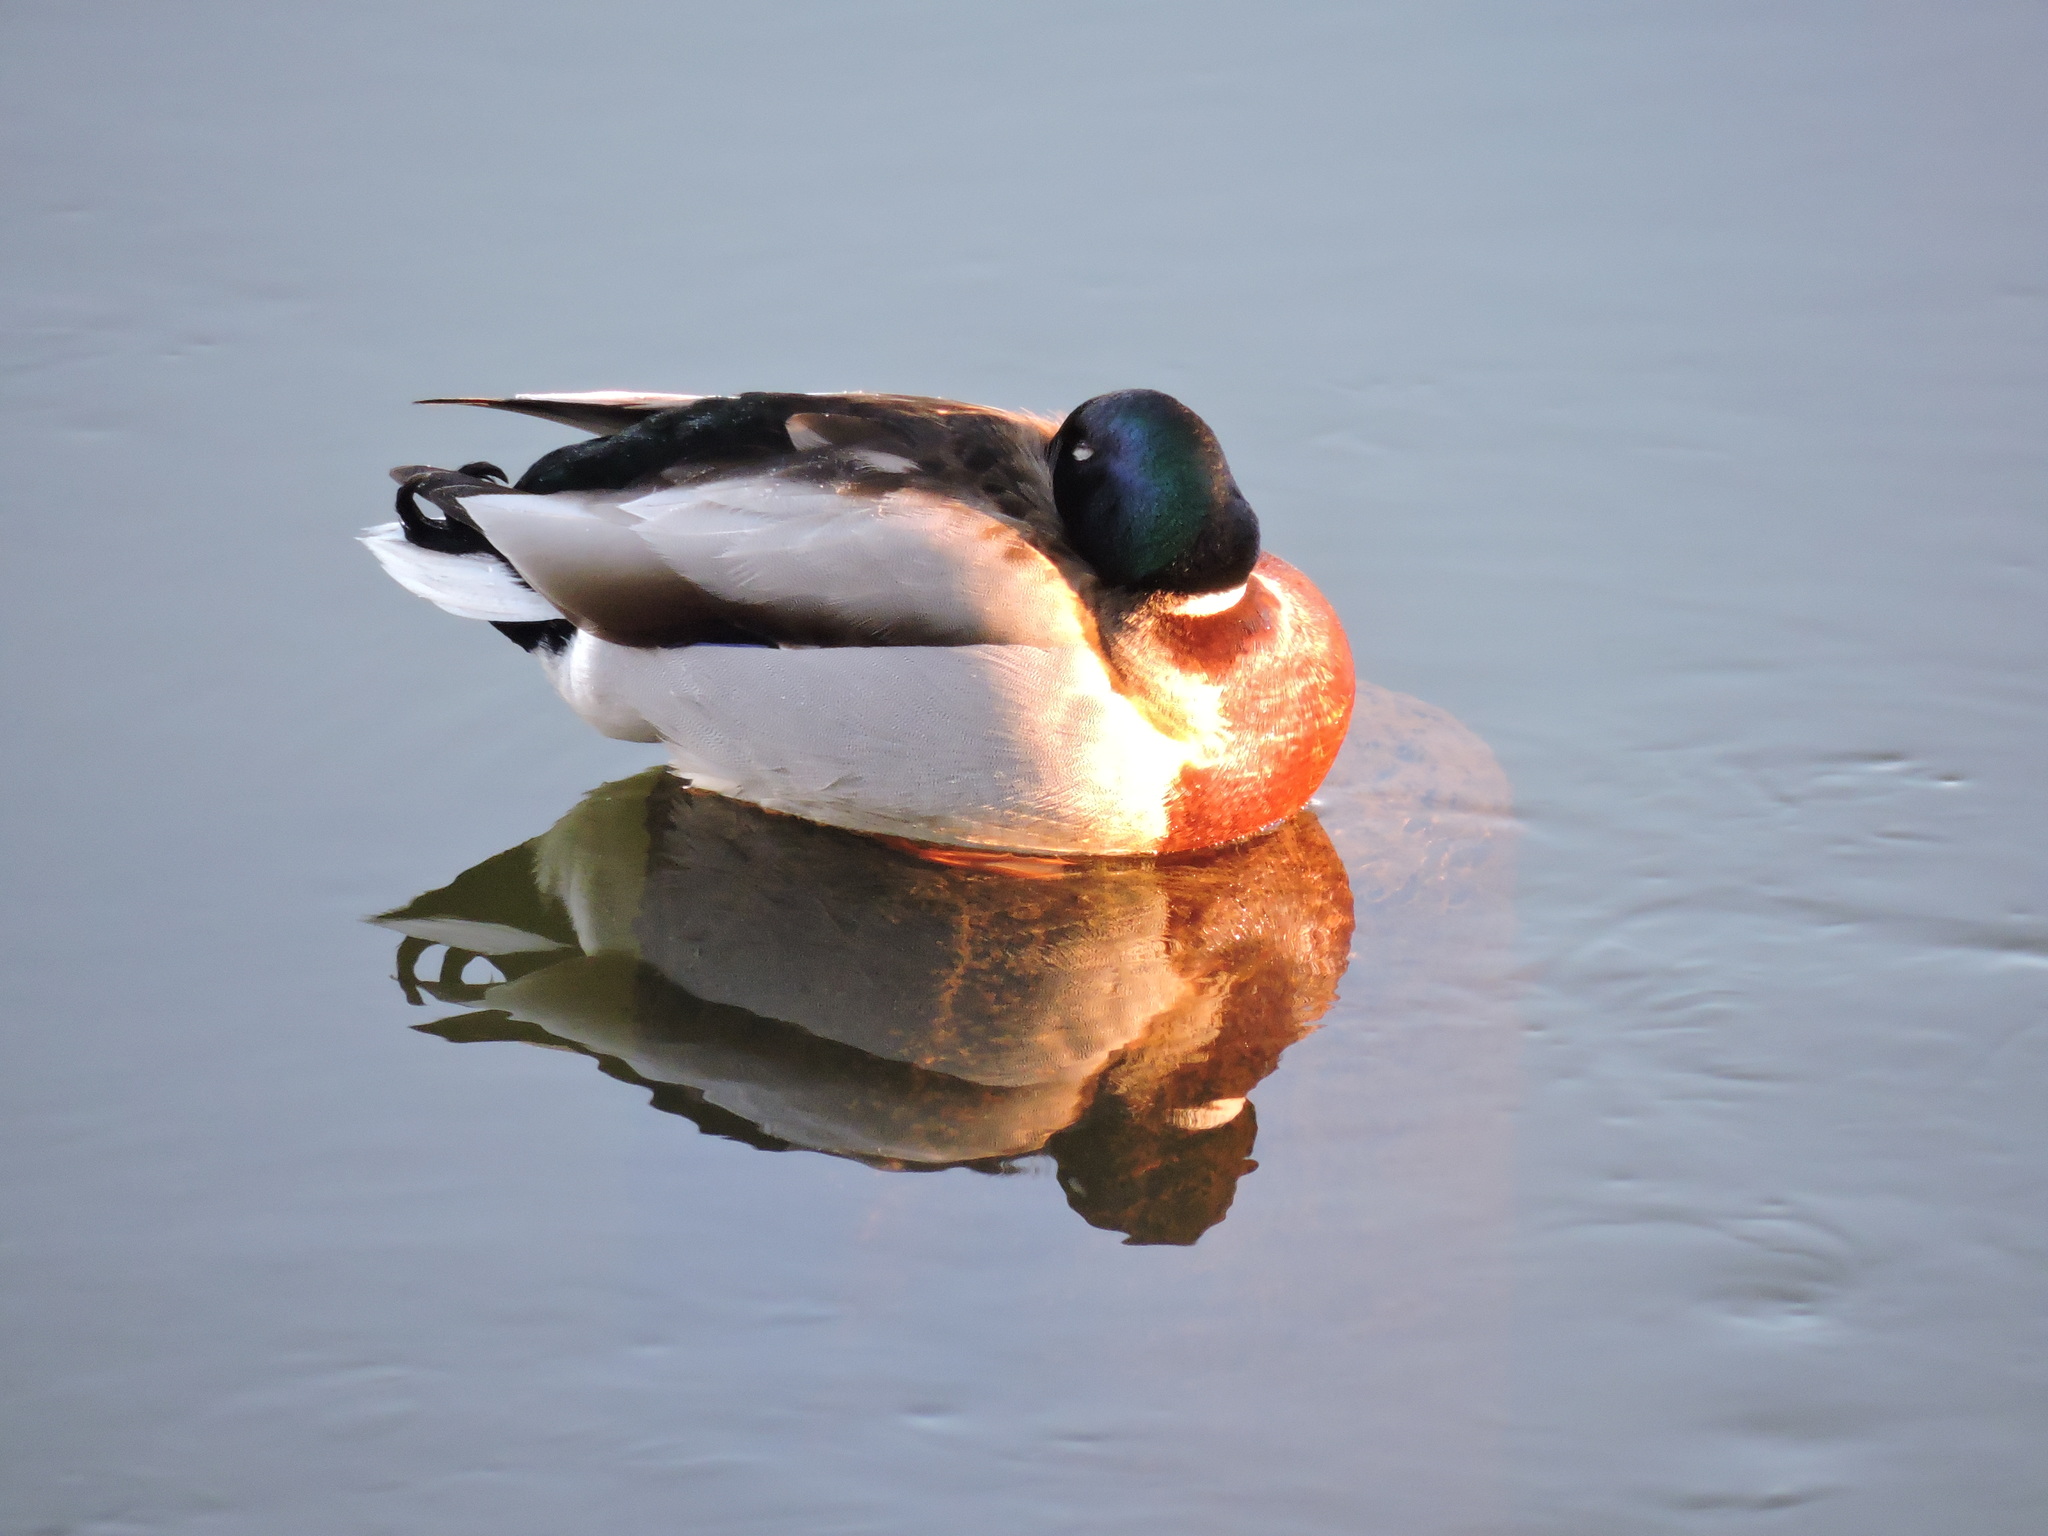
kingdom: Animalia
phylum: Chordata
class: Aves
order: Anseriformes
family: Anatidae
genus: Anas
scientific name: Anas platyrhynchos
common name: Mallard
